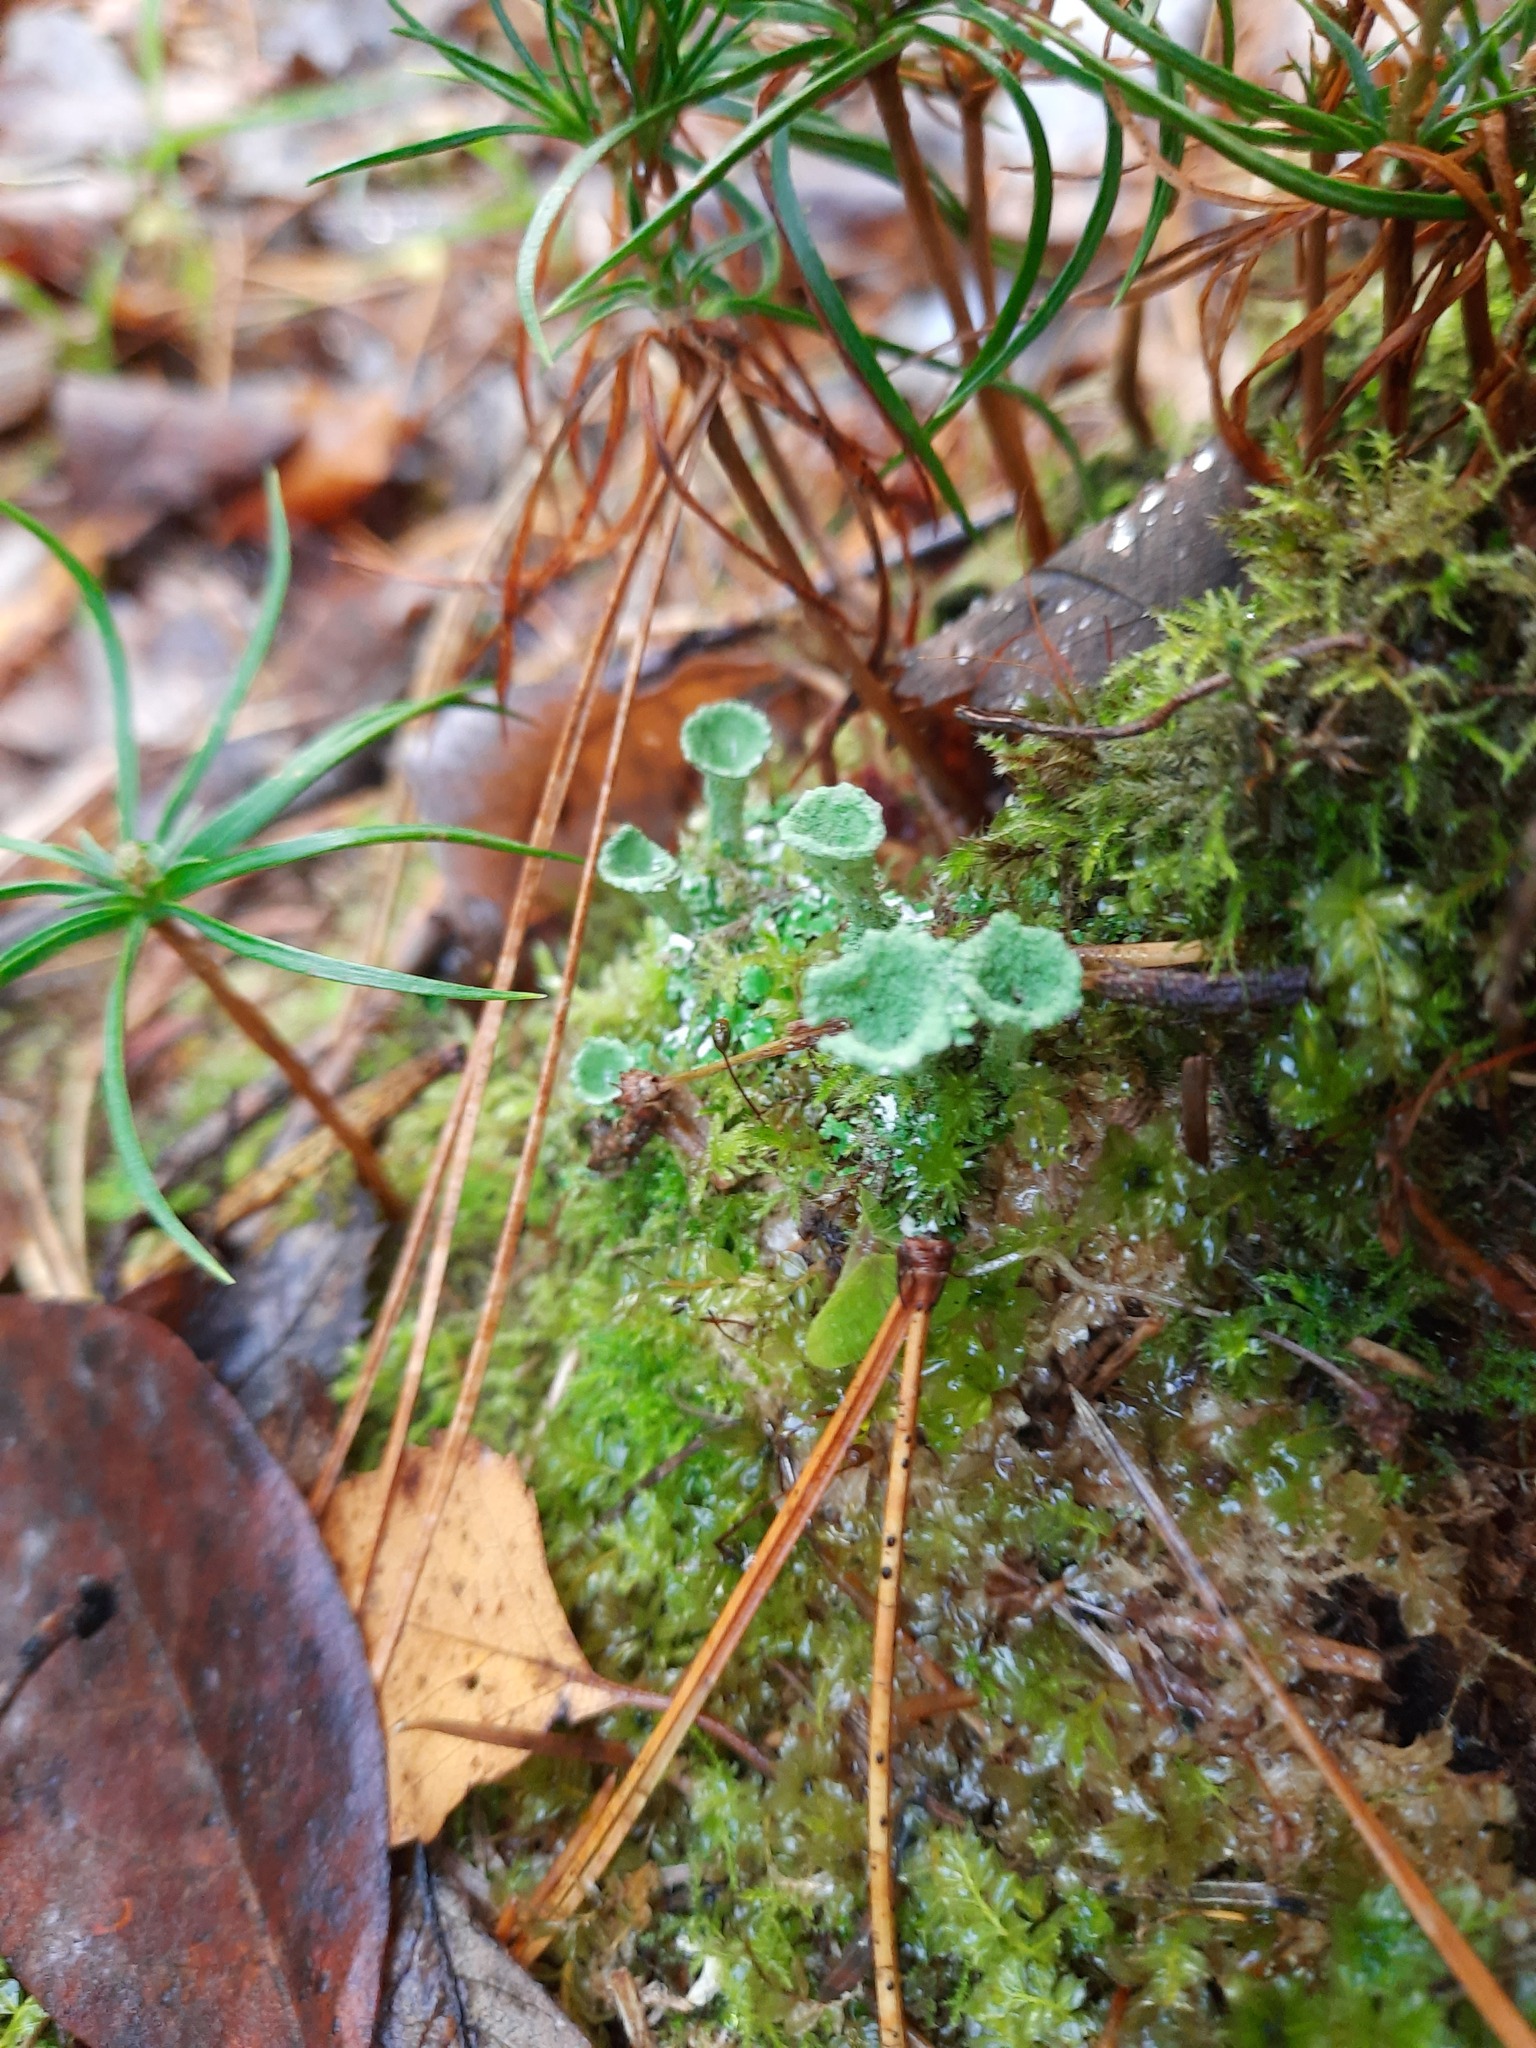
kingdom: Fungi
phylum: Ascomycota
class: Lecanoromycetes
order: Lecanorales
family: Cladoniaceae
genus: Cladonia
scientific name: Cladonia fimbriata
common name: Powdered trumpet lichen
